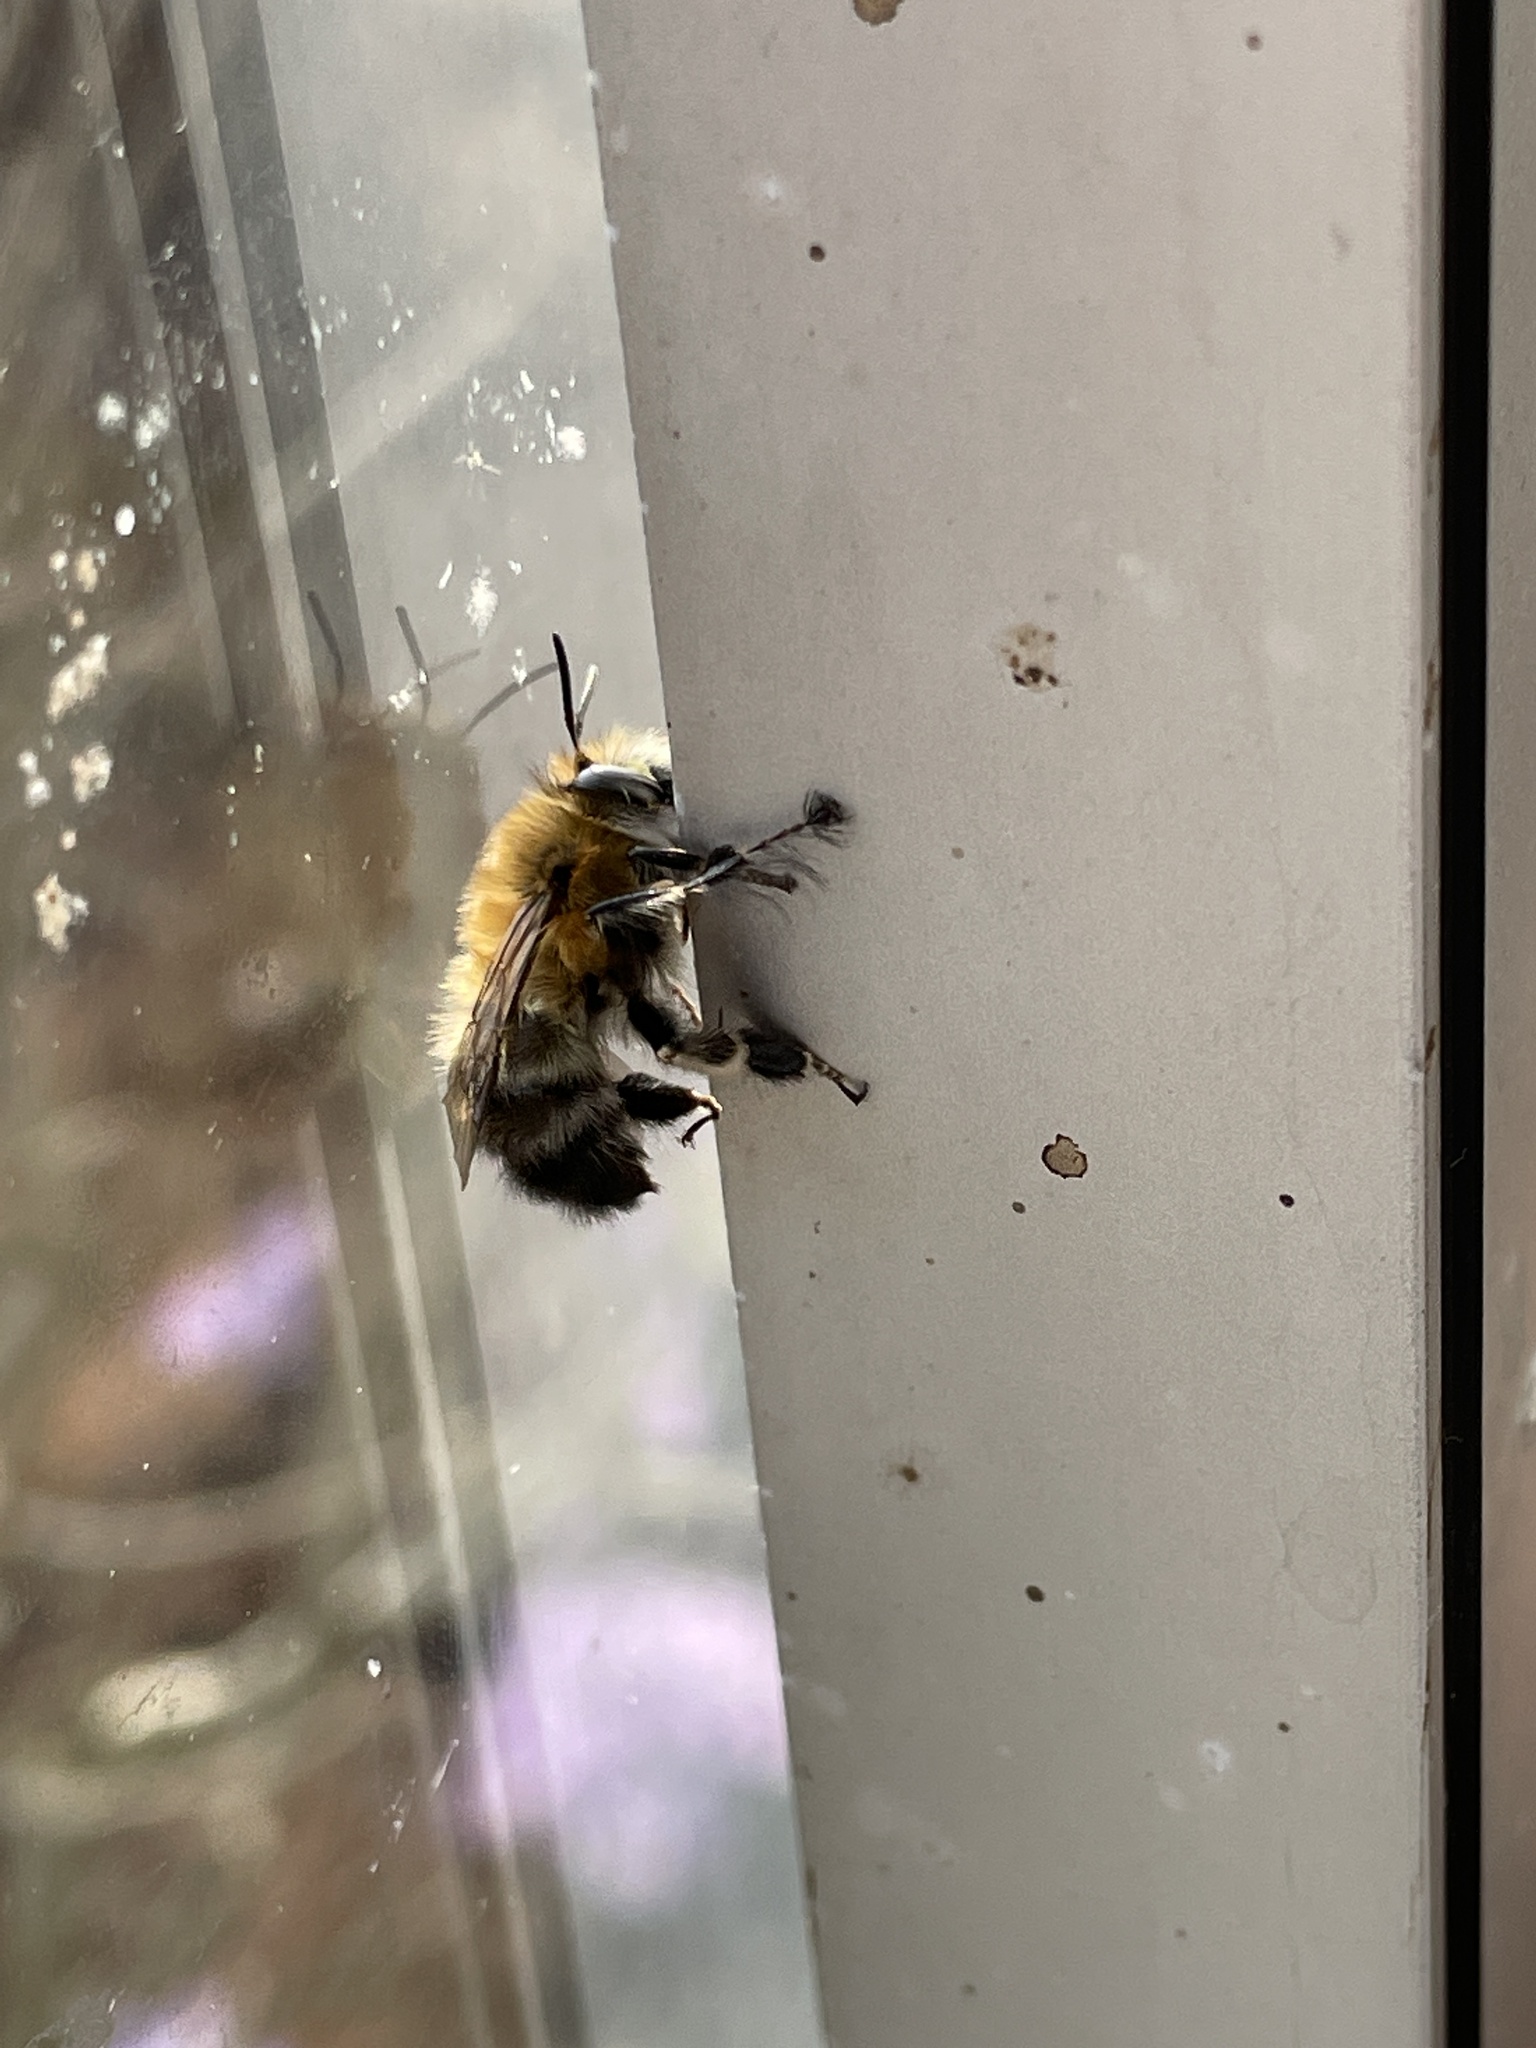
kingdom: Animalia
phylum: Arthropoda
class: Insecta
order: Hymenoptera
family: Apidae
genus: Anthophora
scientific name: Anthophora plumipes
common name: Hairy-footed flower bee
